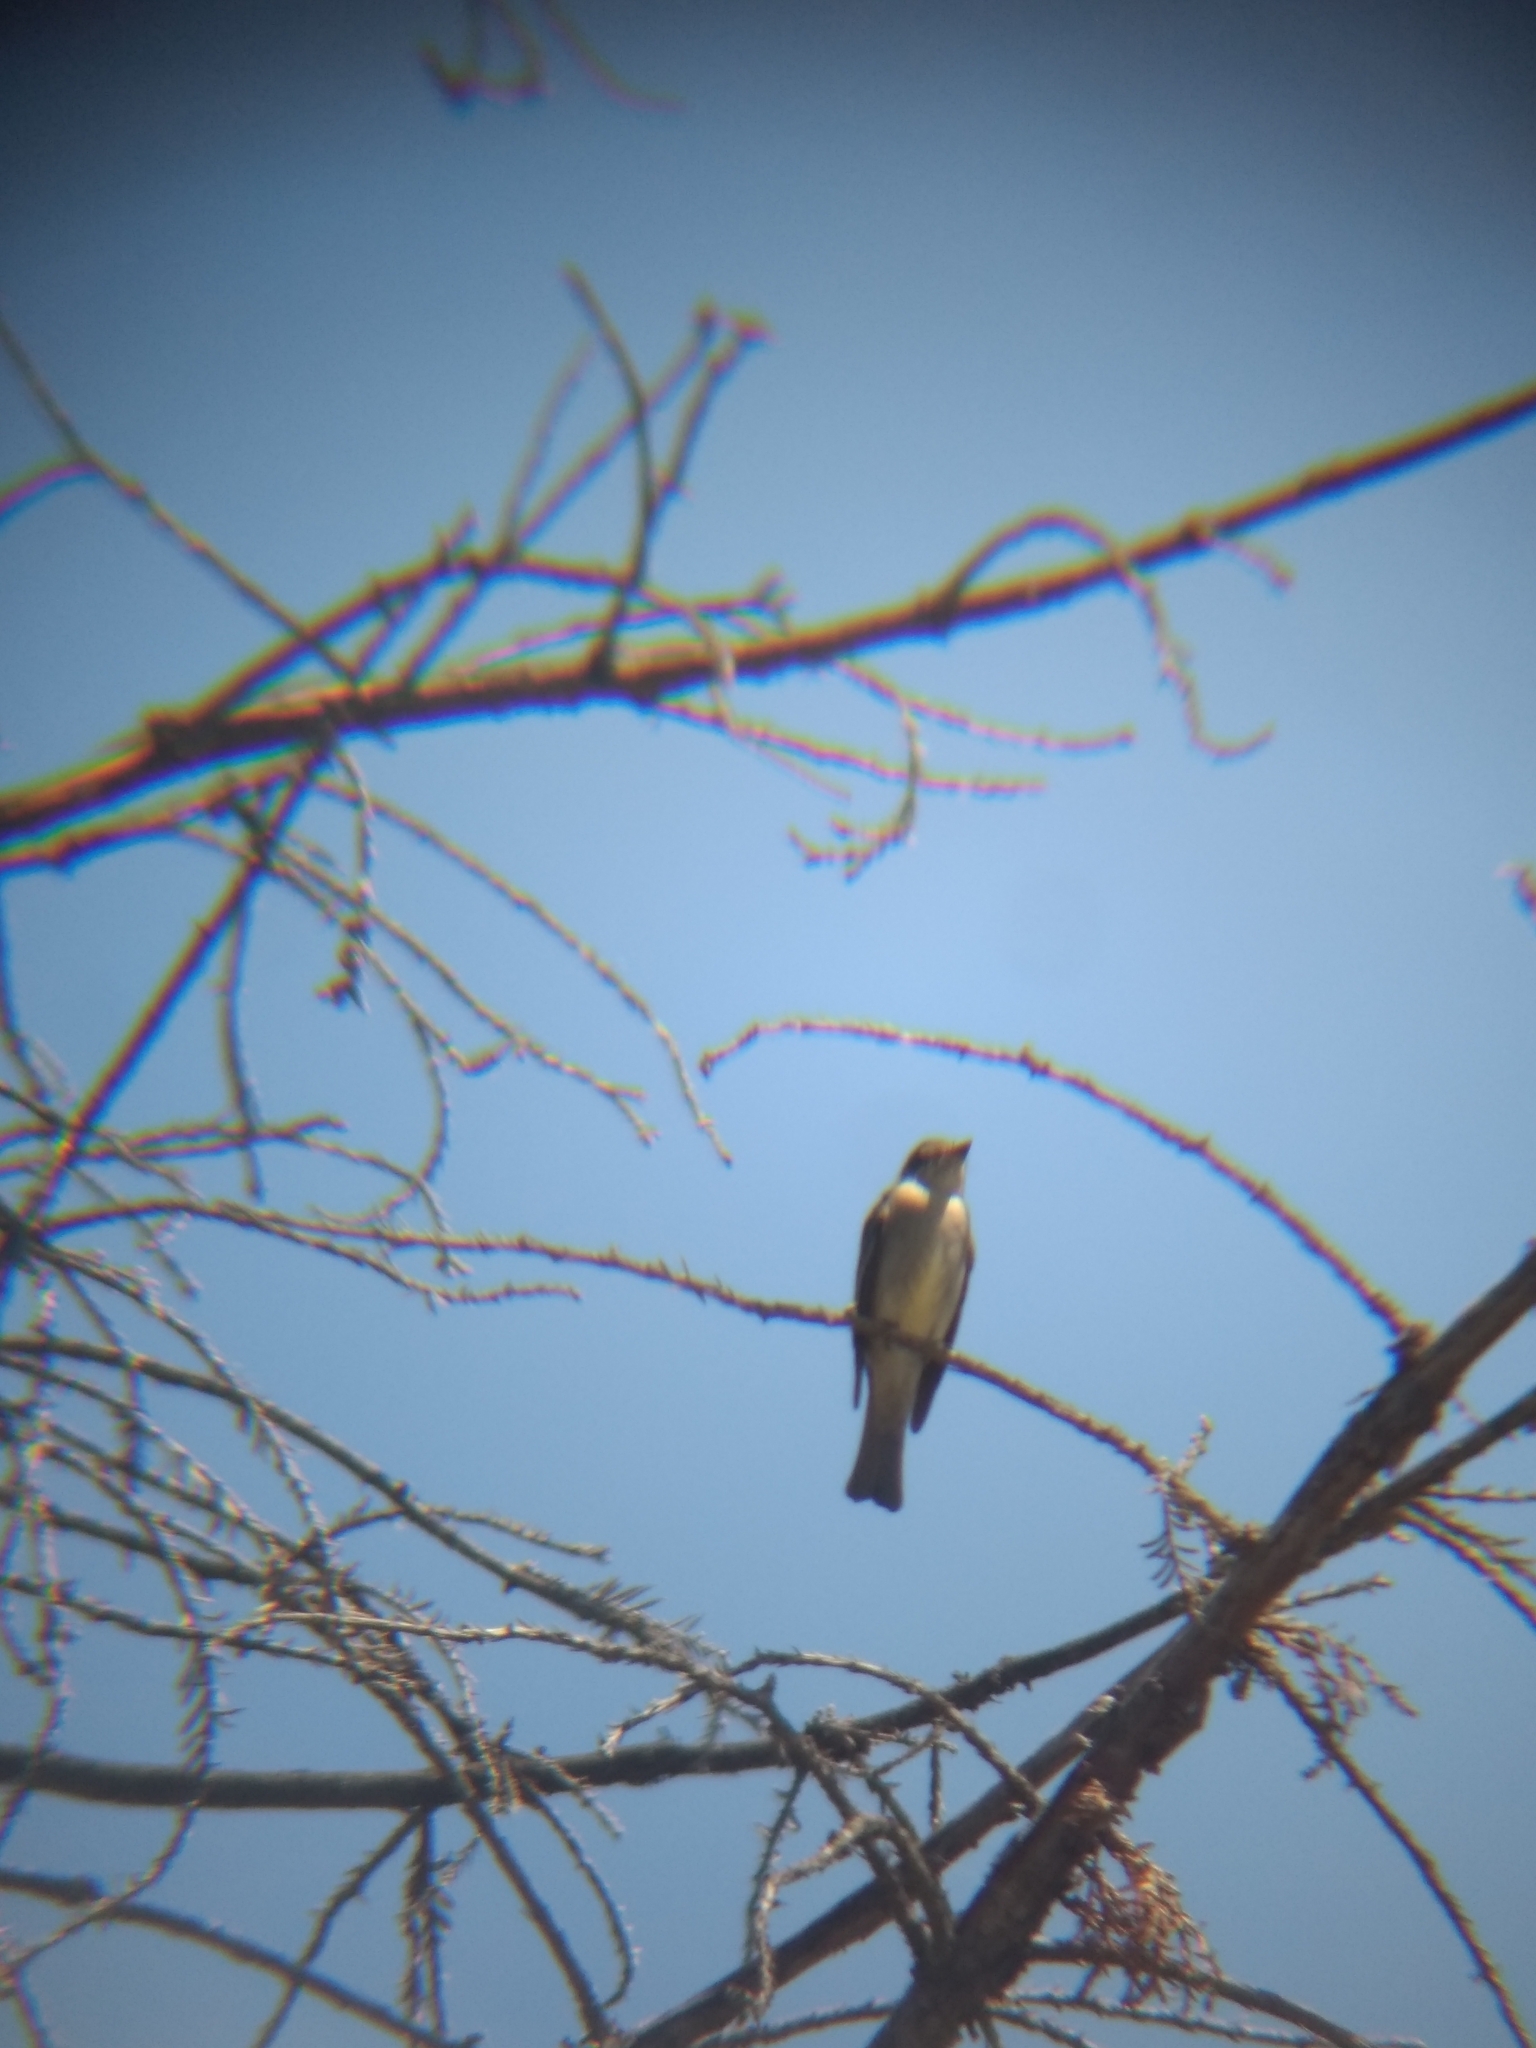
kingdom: Animalia
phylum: Chordata
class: Aves
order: Passeriformes
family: Tyrannidae
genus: Contopus
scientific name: Contopus sordidulus
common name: Western wood-pewee
